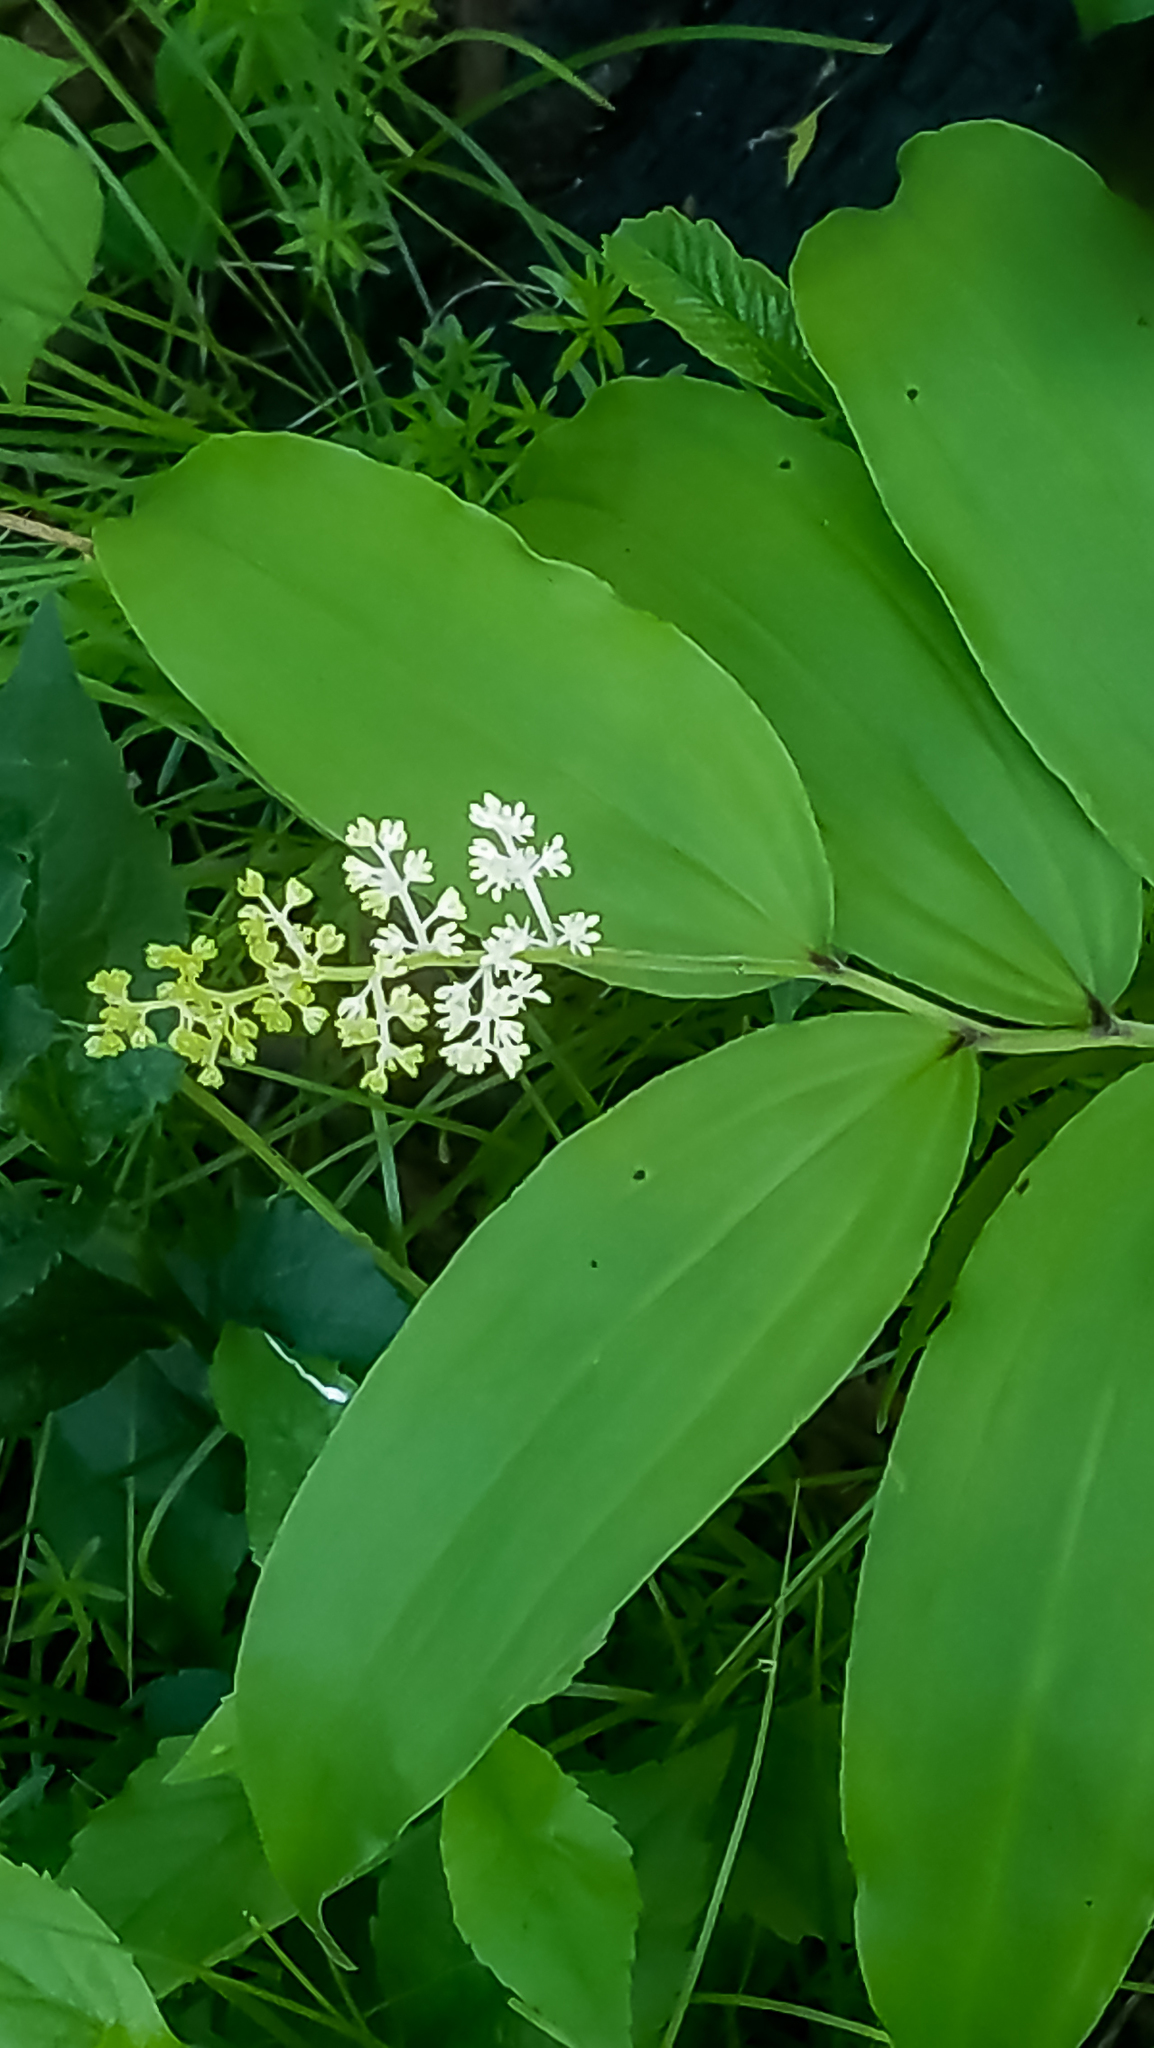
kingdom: Plantae
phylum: Tracheophyta
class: Liliopsida
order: Asparagales
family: Asparagaceae
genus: Maianthemum
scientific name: Maianthemum racemosum
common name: False spikenard
